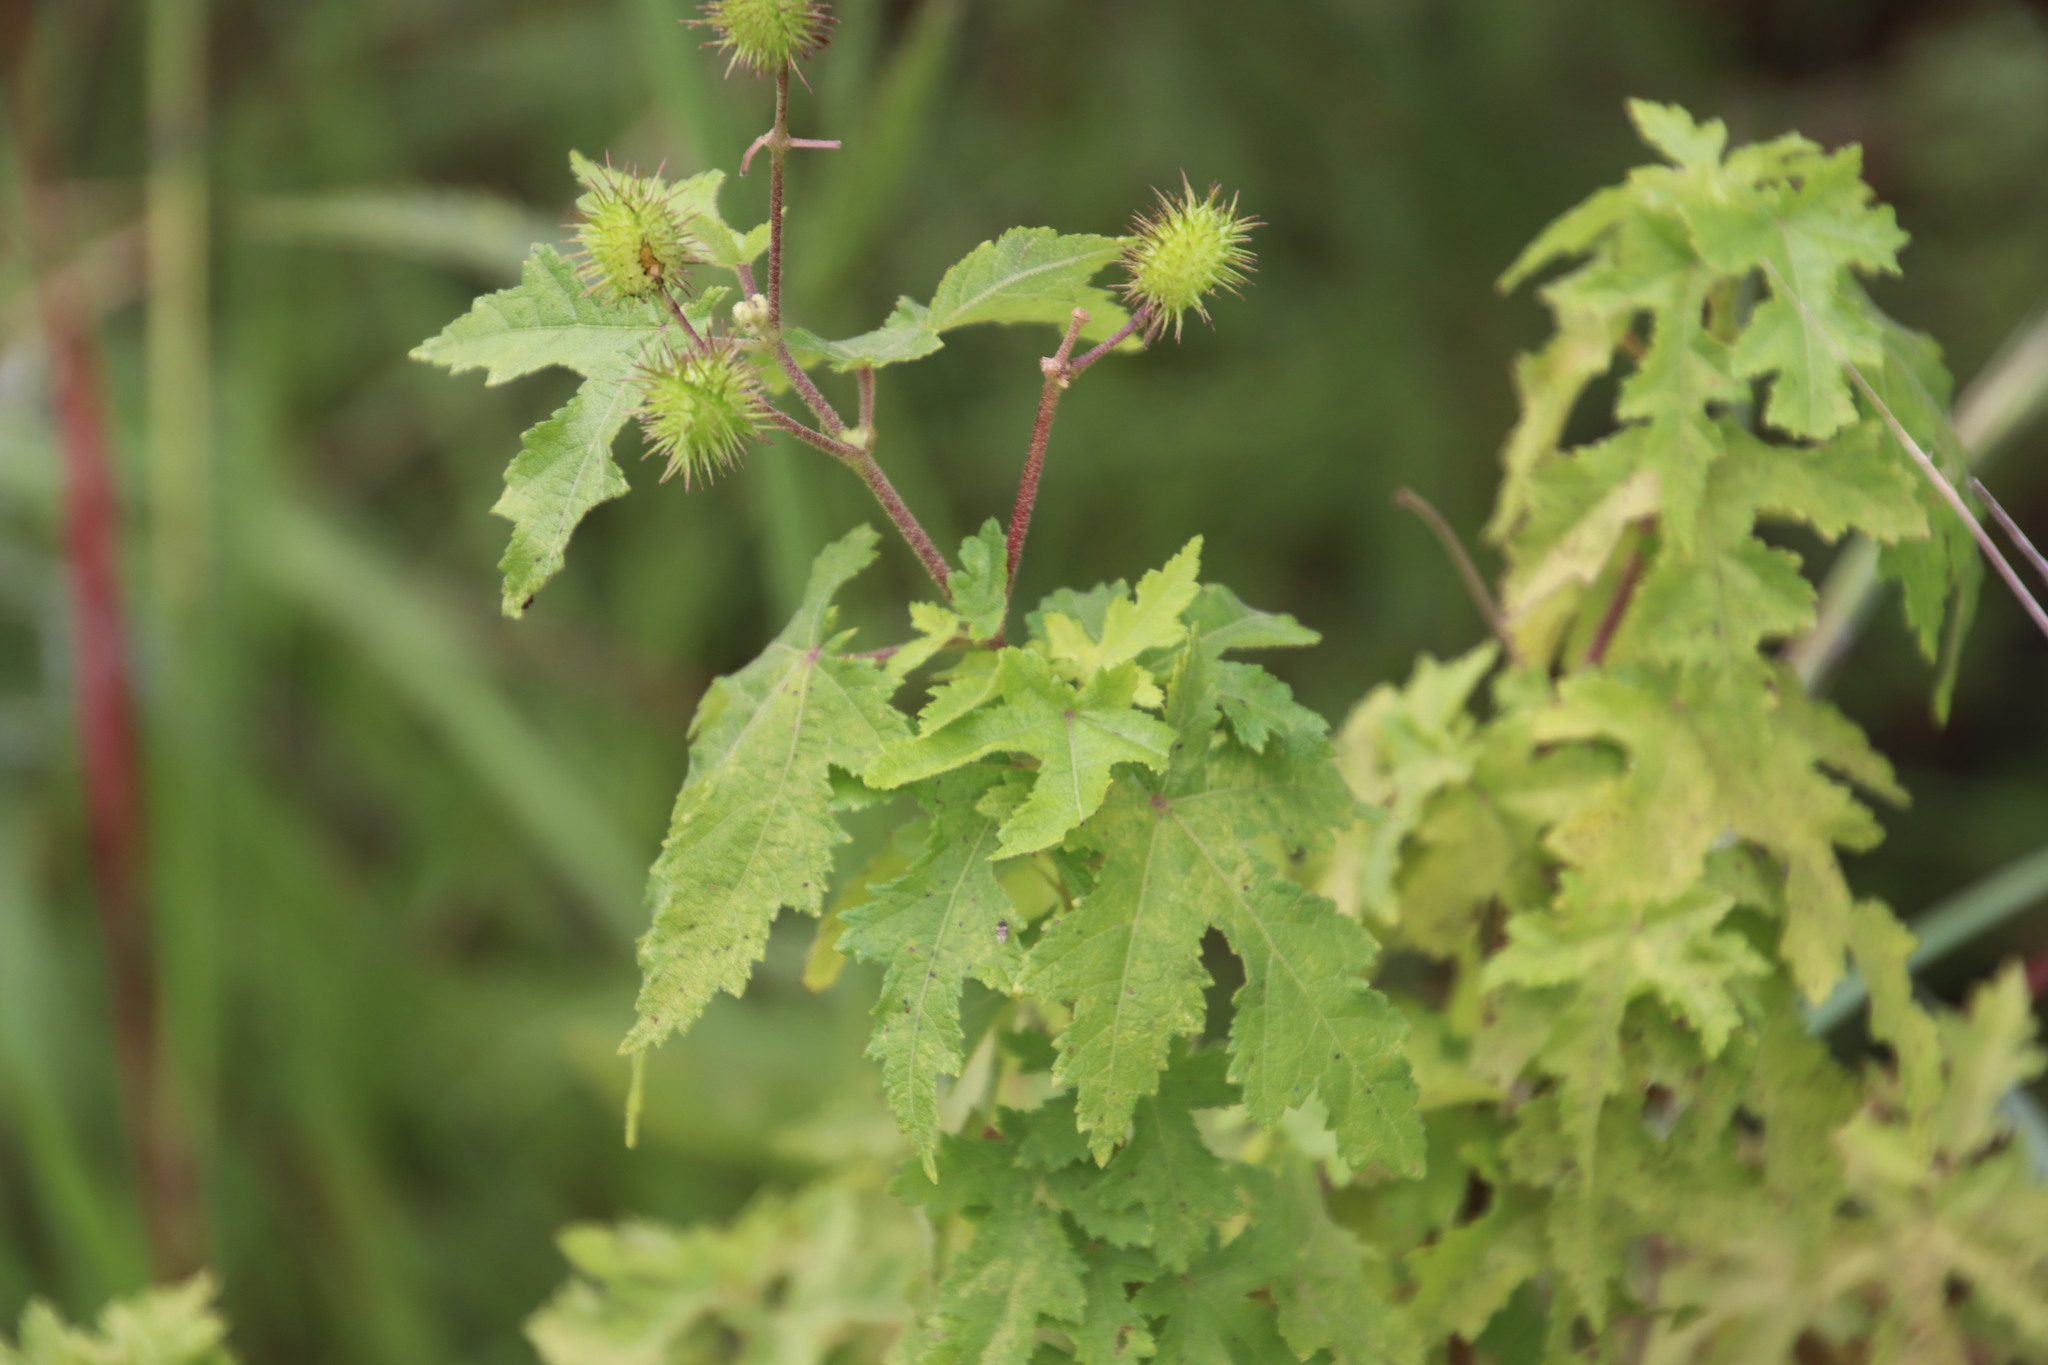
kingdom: Plantae
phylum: Tracheophyta
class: Magnoliopsida
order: Asterales
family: Asteraceae
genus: Xanthium
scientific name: Xanthium strumarium
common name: Rough cocklebur
